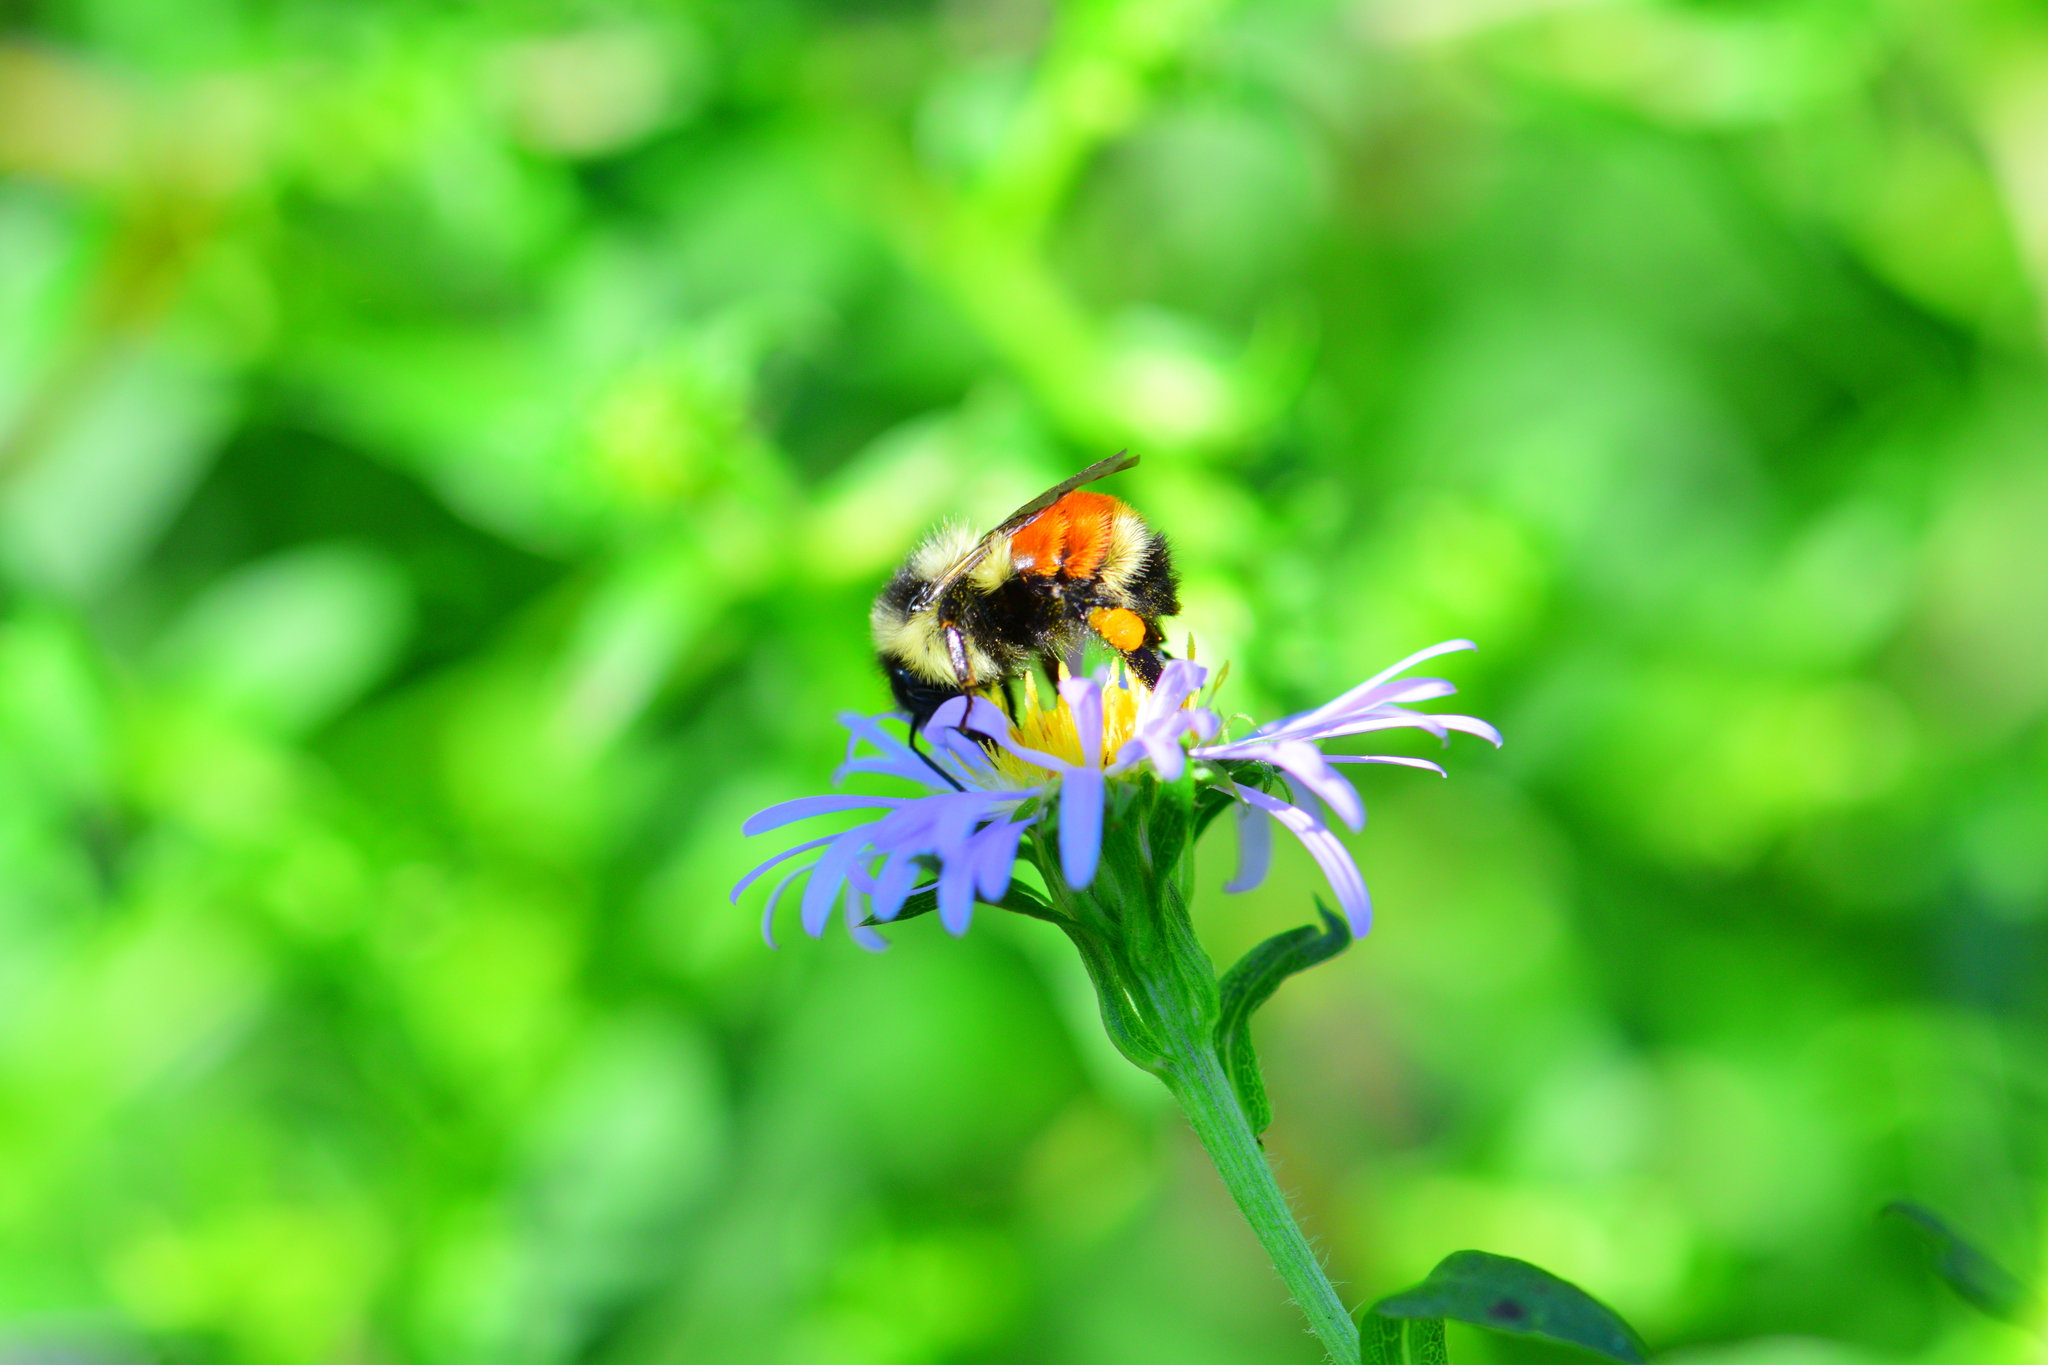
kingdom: Animalia
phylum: Arthropoda
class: Insecta
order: Hymenoptera
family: Apidae
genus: Bombus
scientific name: Bombus ternarius
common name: Tri-colored bumble bee
